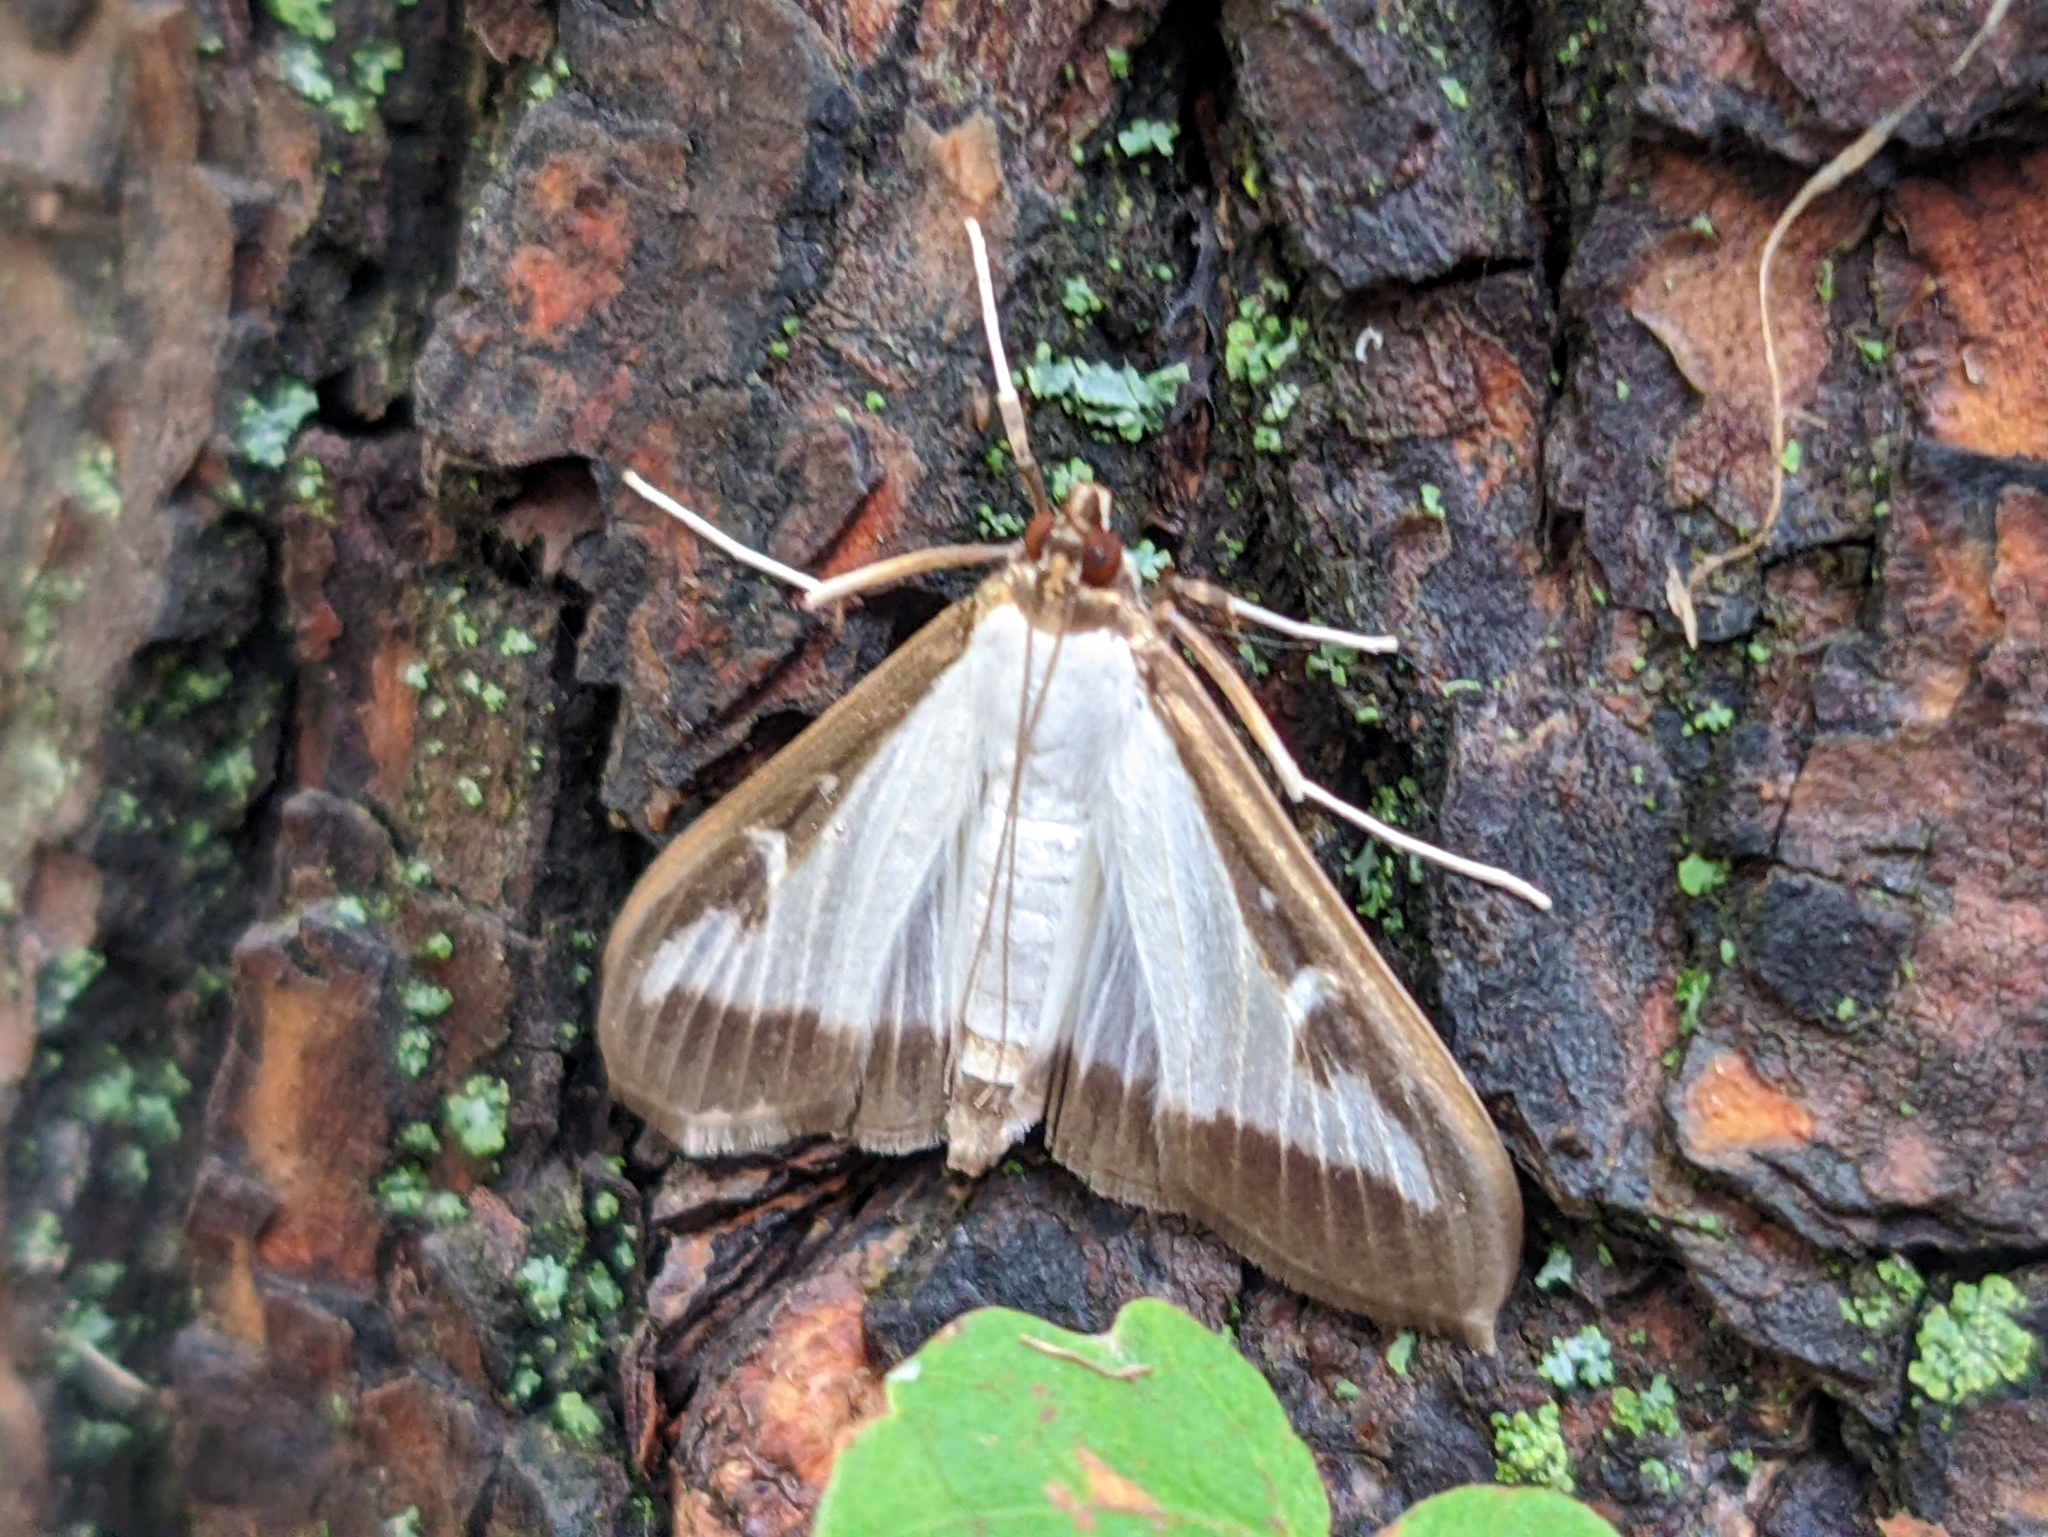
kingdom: Animalia
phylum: Arthropoda
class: Insecta
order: Lepidoptera
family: Crambidae
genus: Cydalima
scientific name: Cydalima perspectalis
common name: Box tree moth
